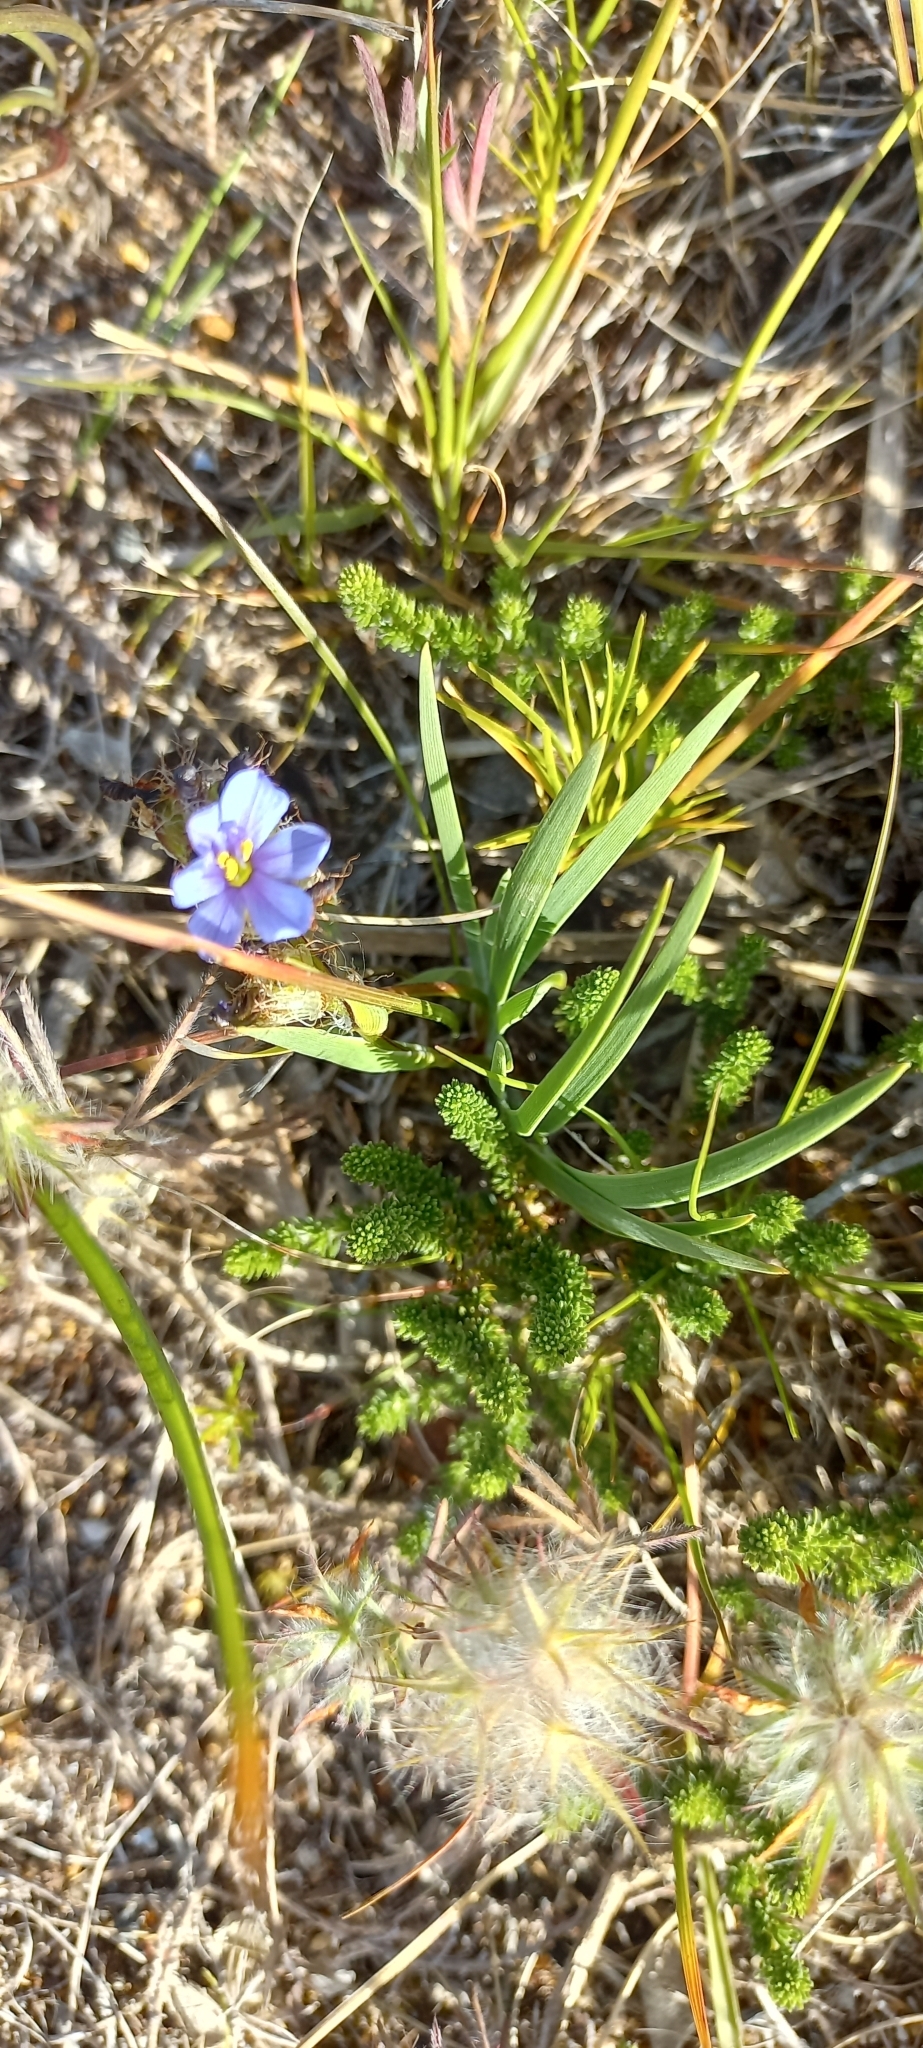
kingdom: Plantae
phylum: Tracheophyta
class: Liliopsida
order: Asparagales
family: Iridaceae
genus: Aristea
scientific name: Aristea africana
